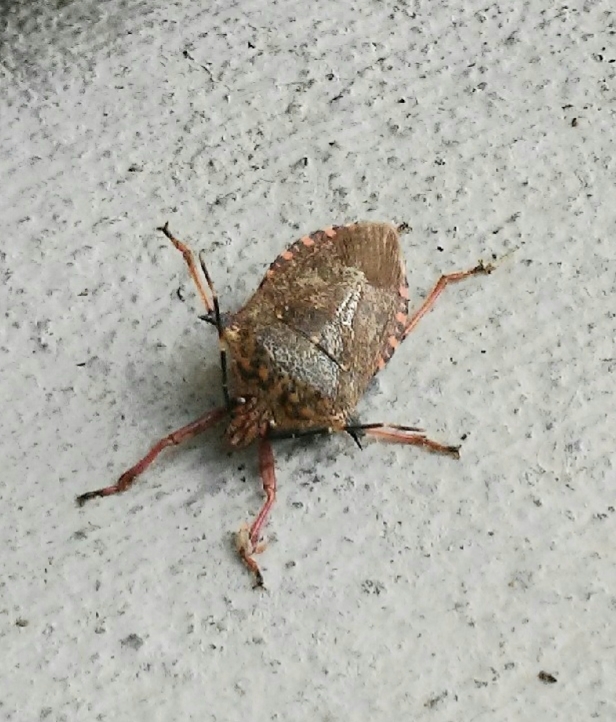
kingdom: Animalia
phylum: Arthropoda
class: Insecta
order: Hemiptera
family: Pentatomidae
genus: Alcaeorrhynchus
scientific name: Alcaeorrhynchus grandis
